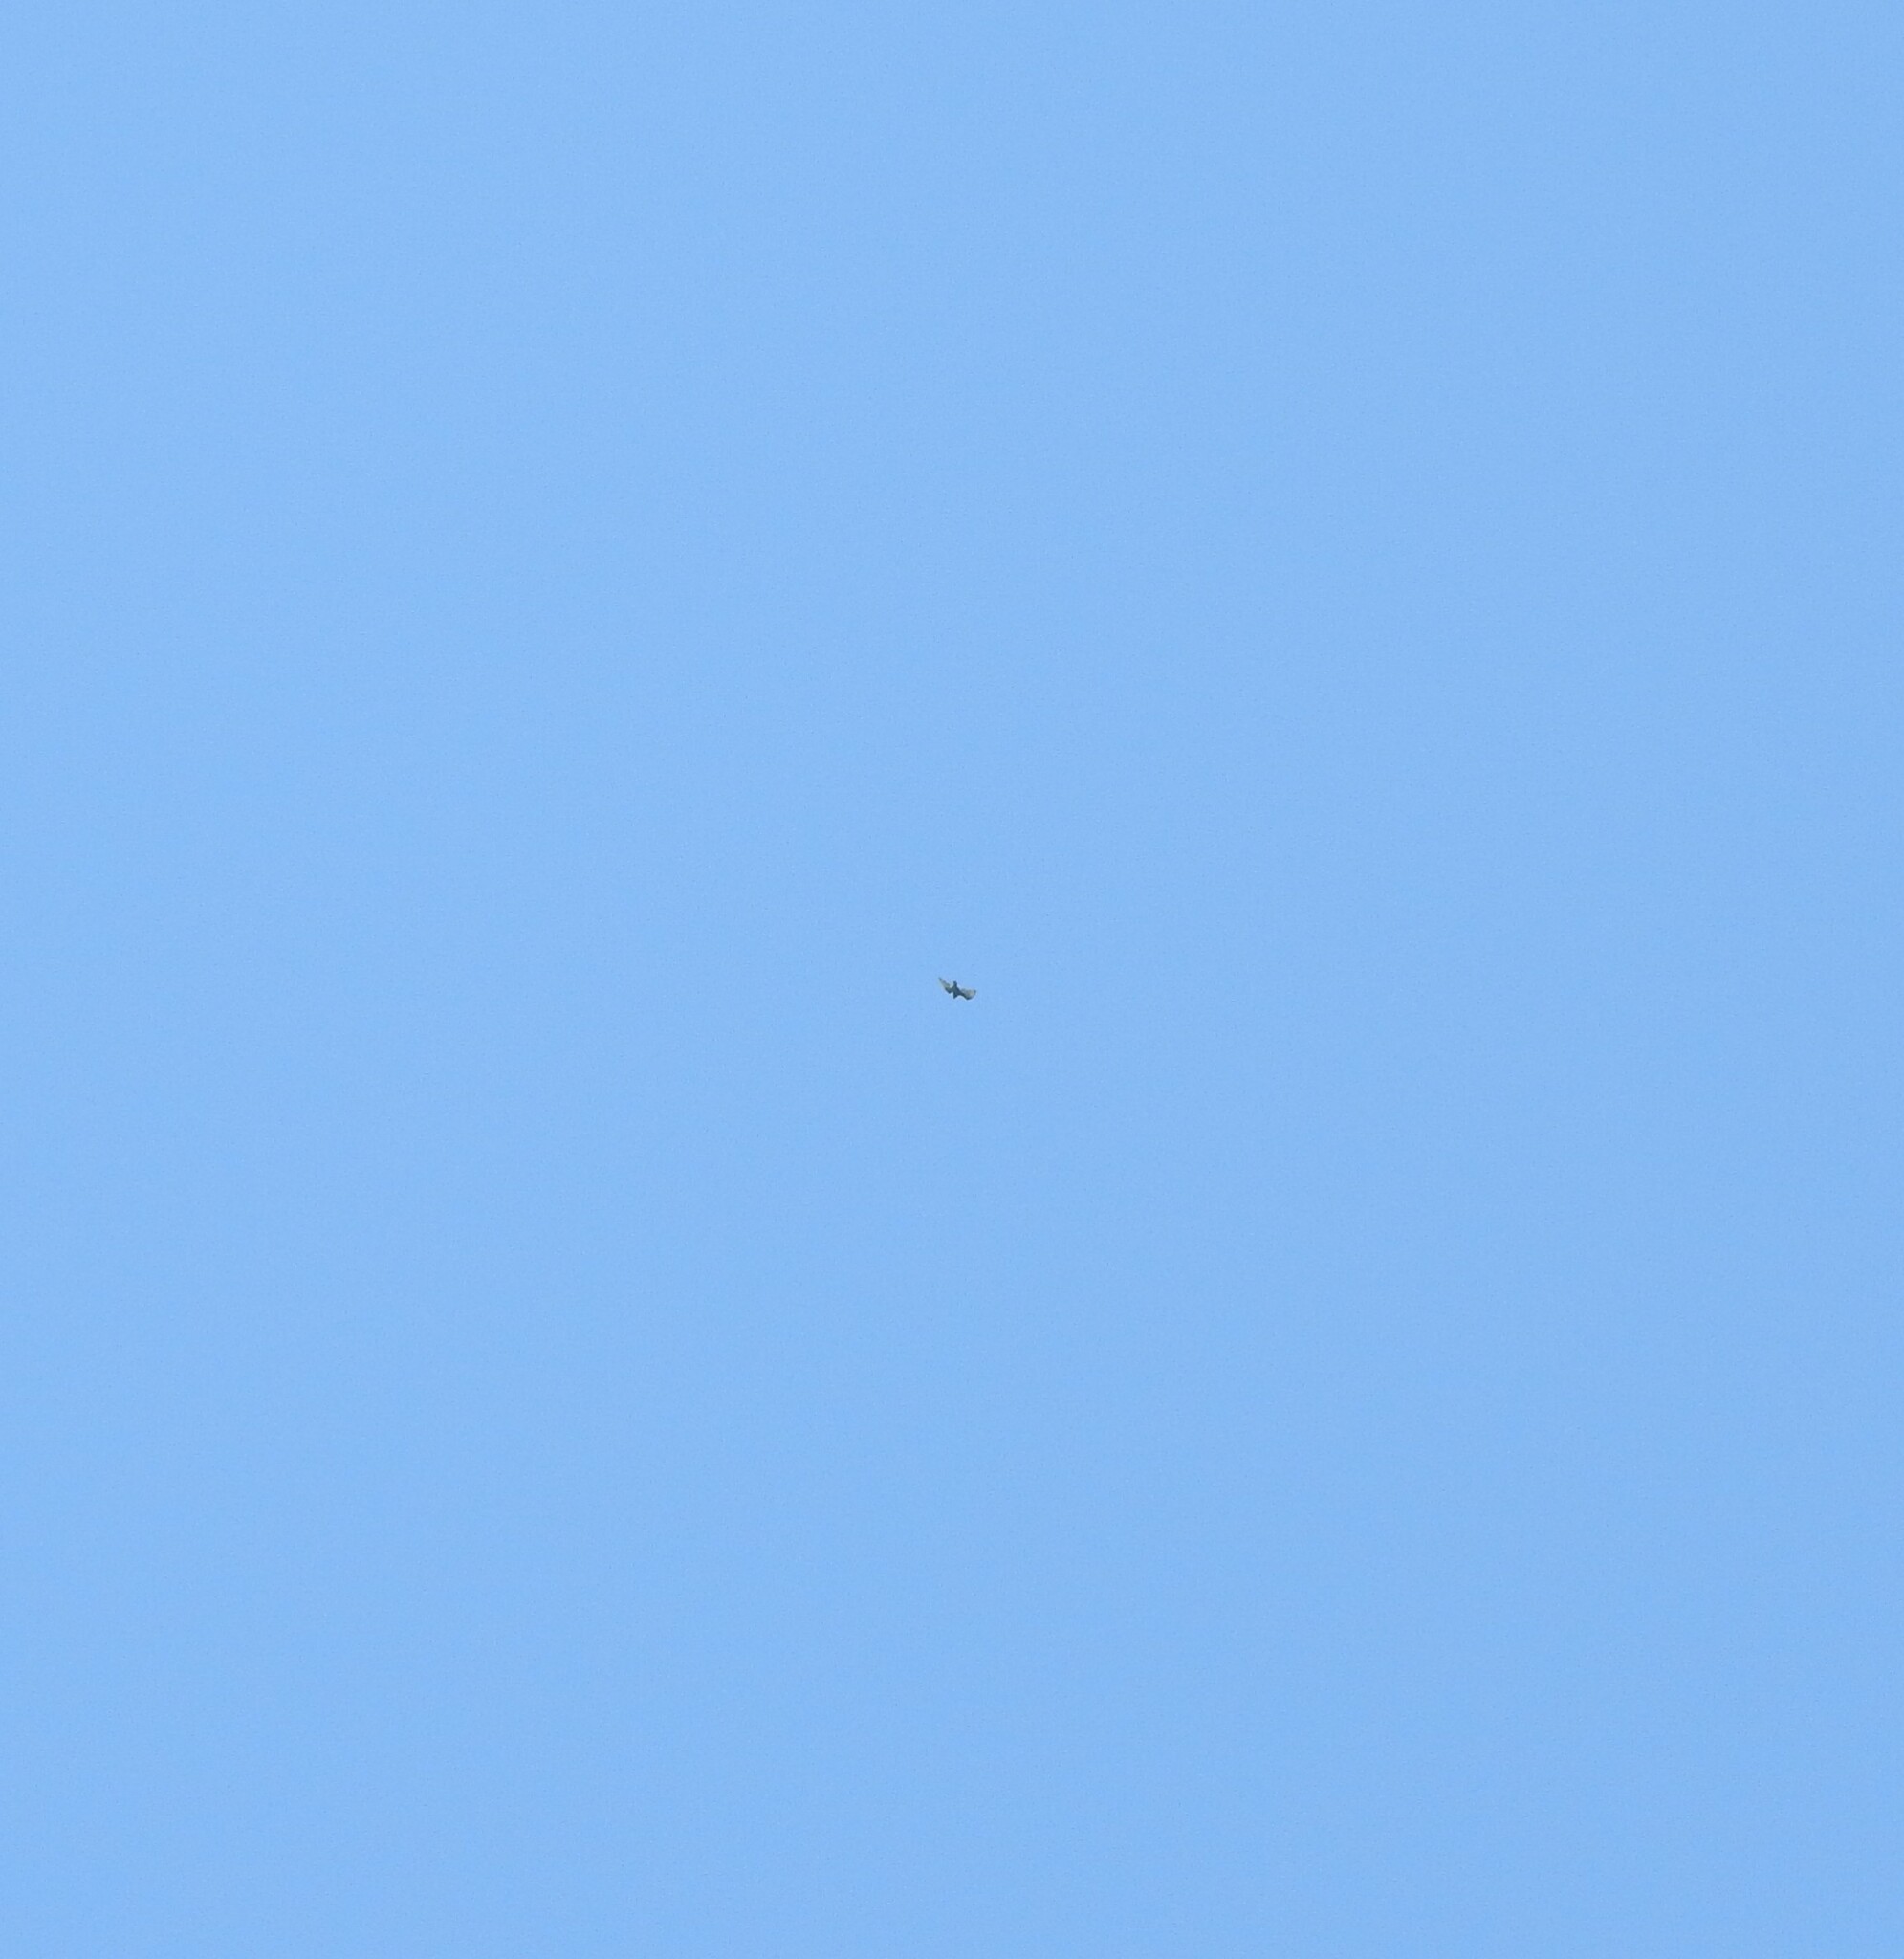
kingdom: Animalia
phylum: Chordata
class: Aves
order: Accipitriformes
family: Cathartidae
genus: Cathartes
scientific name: Cathartes aura
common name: Turkey vulture
